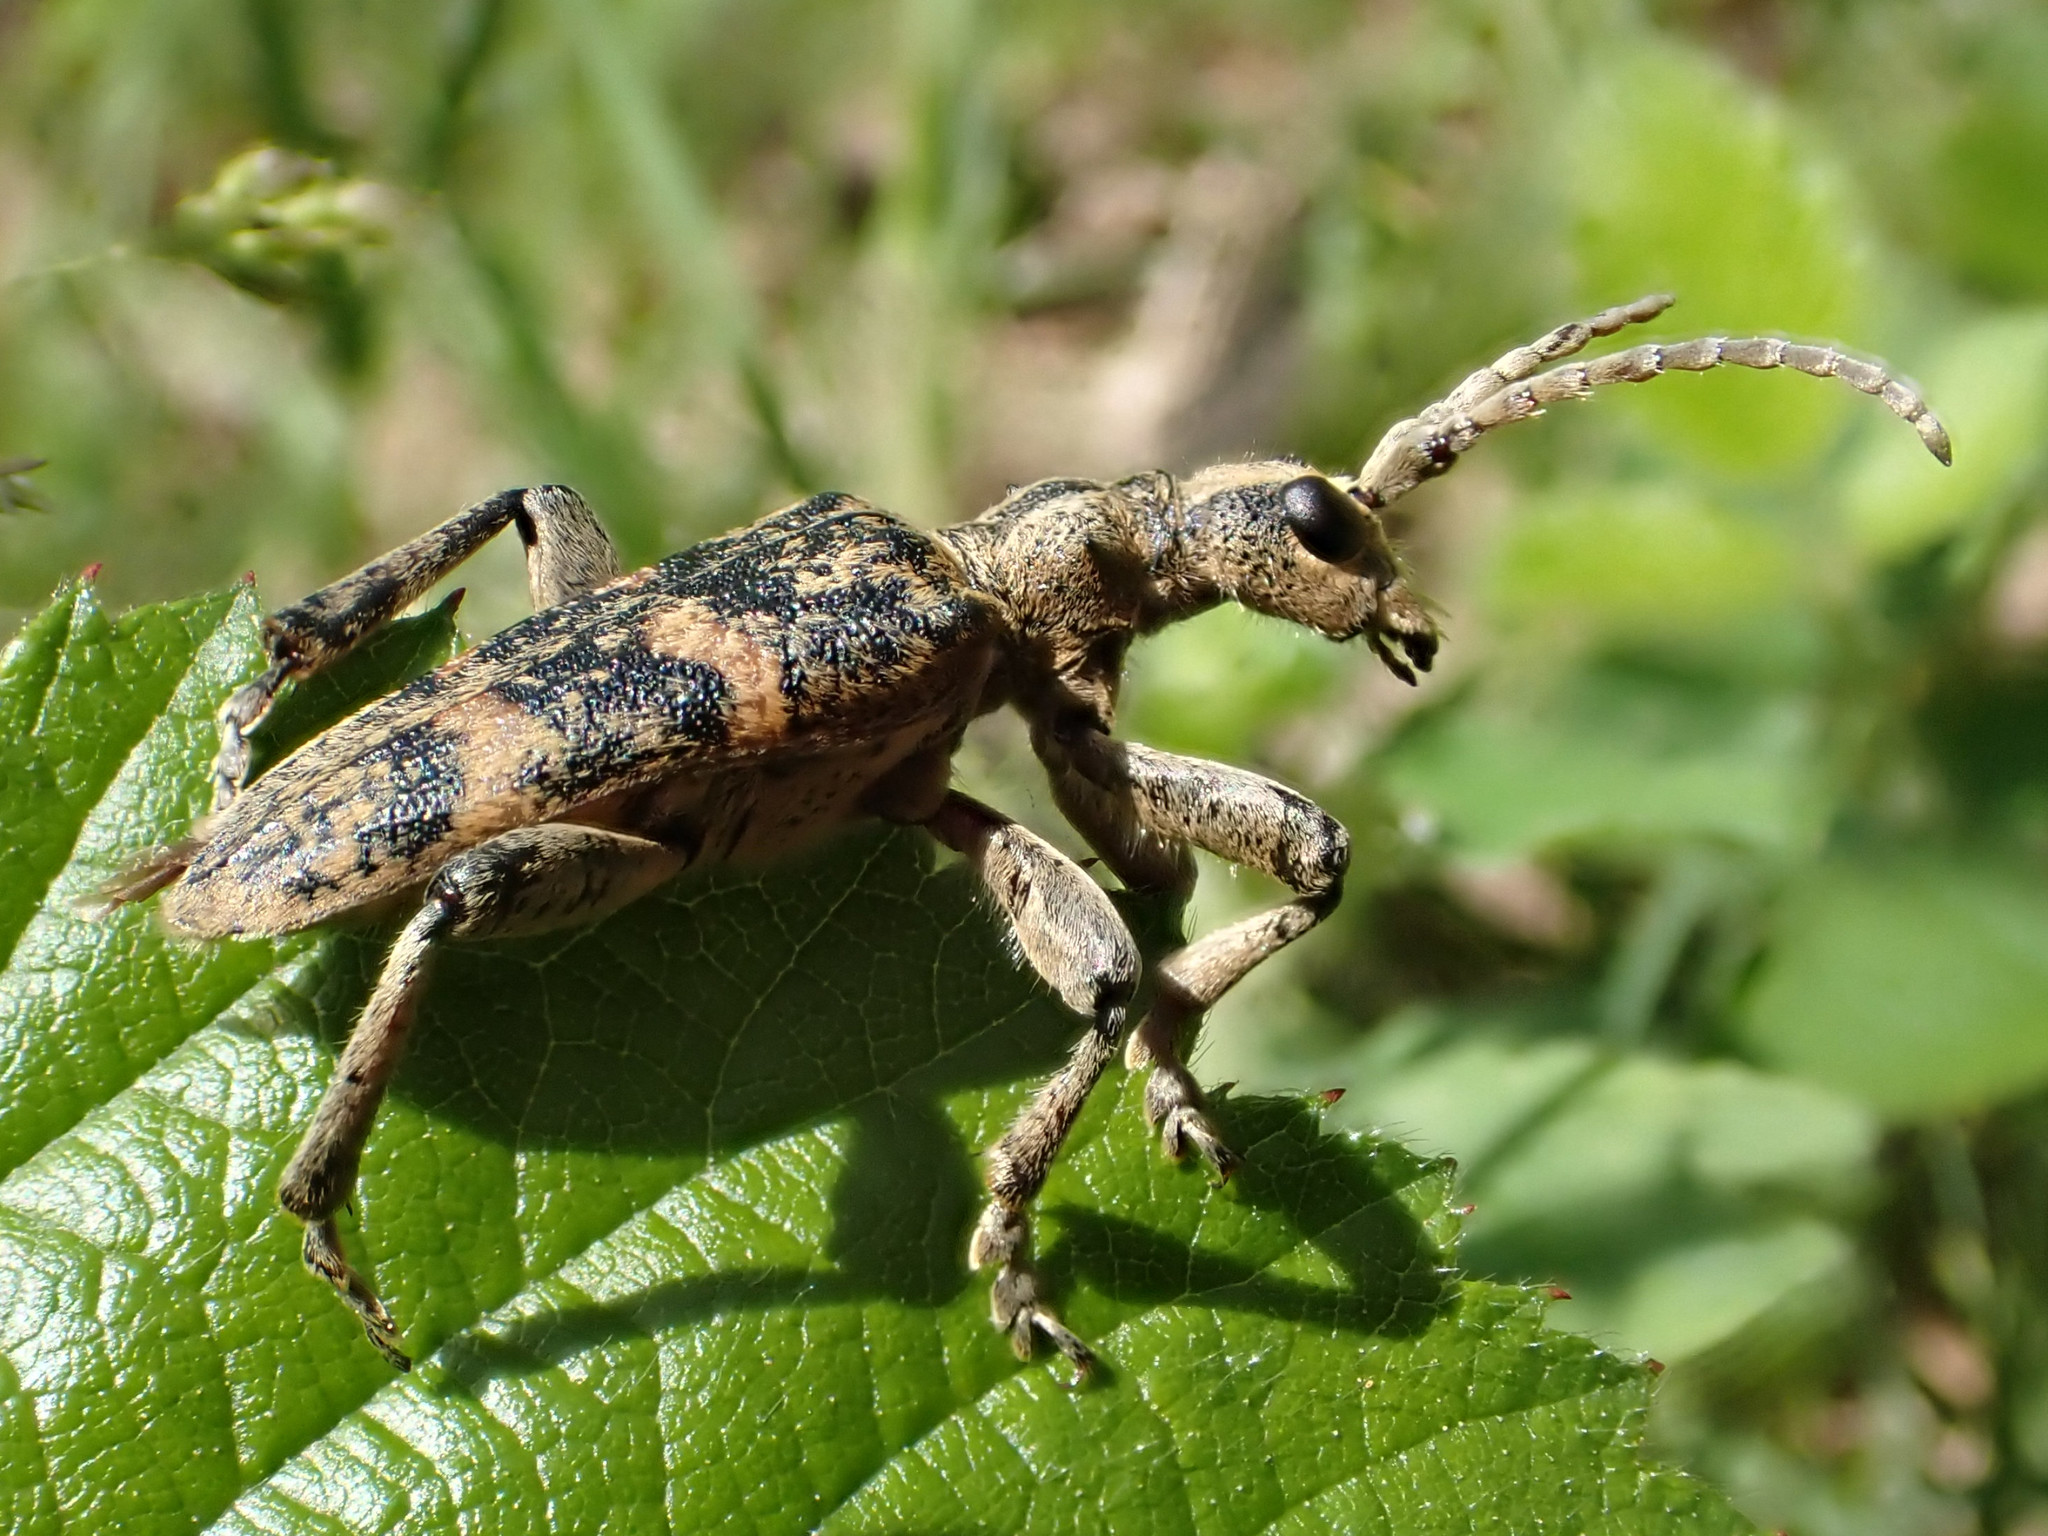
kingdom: Animalia
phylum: Arthropoda
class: Insecta
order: Coleoptera
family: Cerambycidae
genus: Rhagium
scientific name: Rhagium sycophanta
